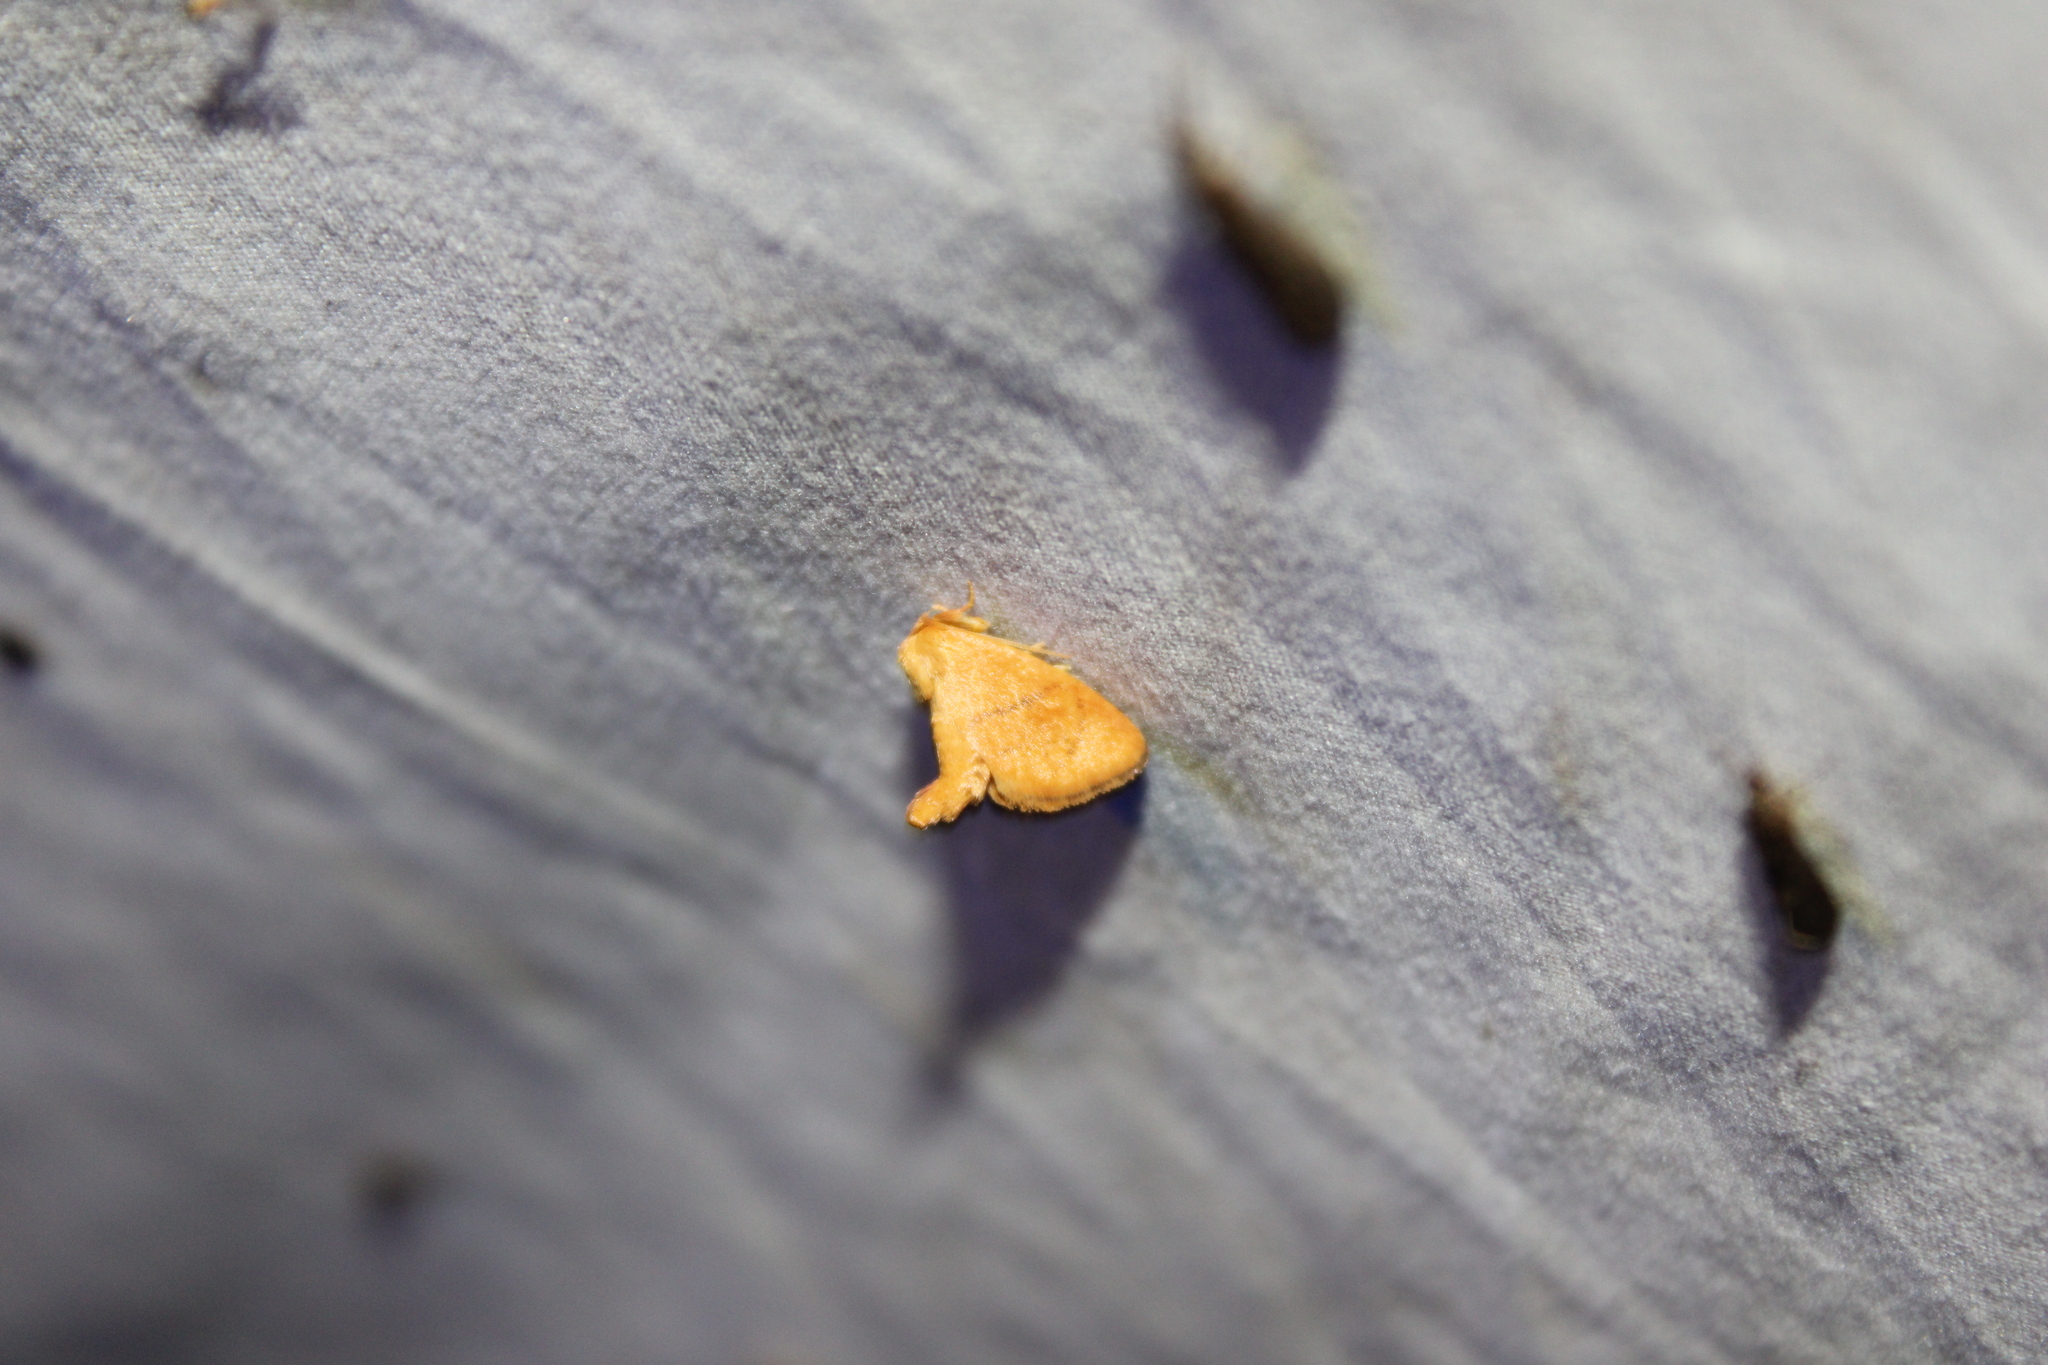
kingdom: Animalia
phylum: Arthropoda
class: Insecta
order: Lepidoptera
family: Limacodidae
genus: Tortricidia
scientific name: Tortricidia pallida
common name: Red-crossed button slug moth
